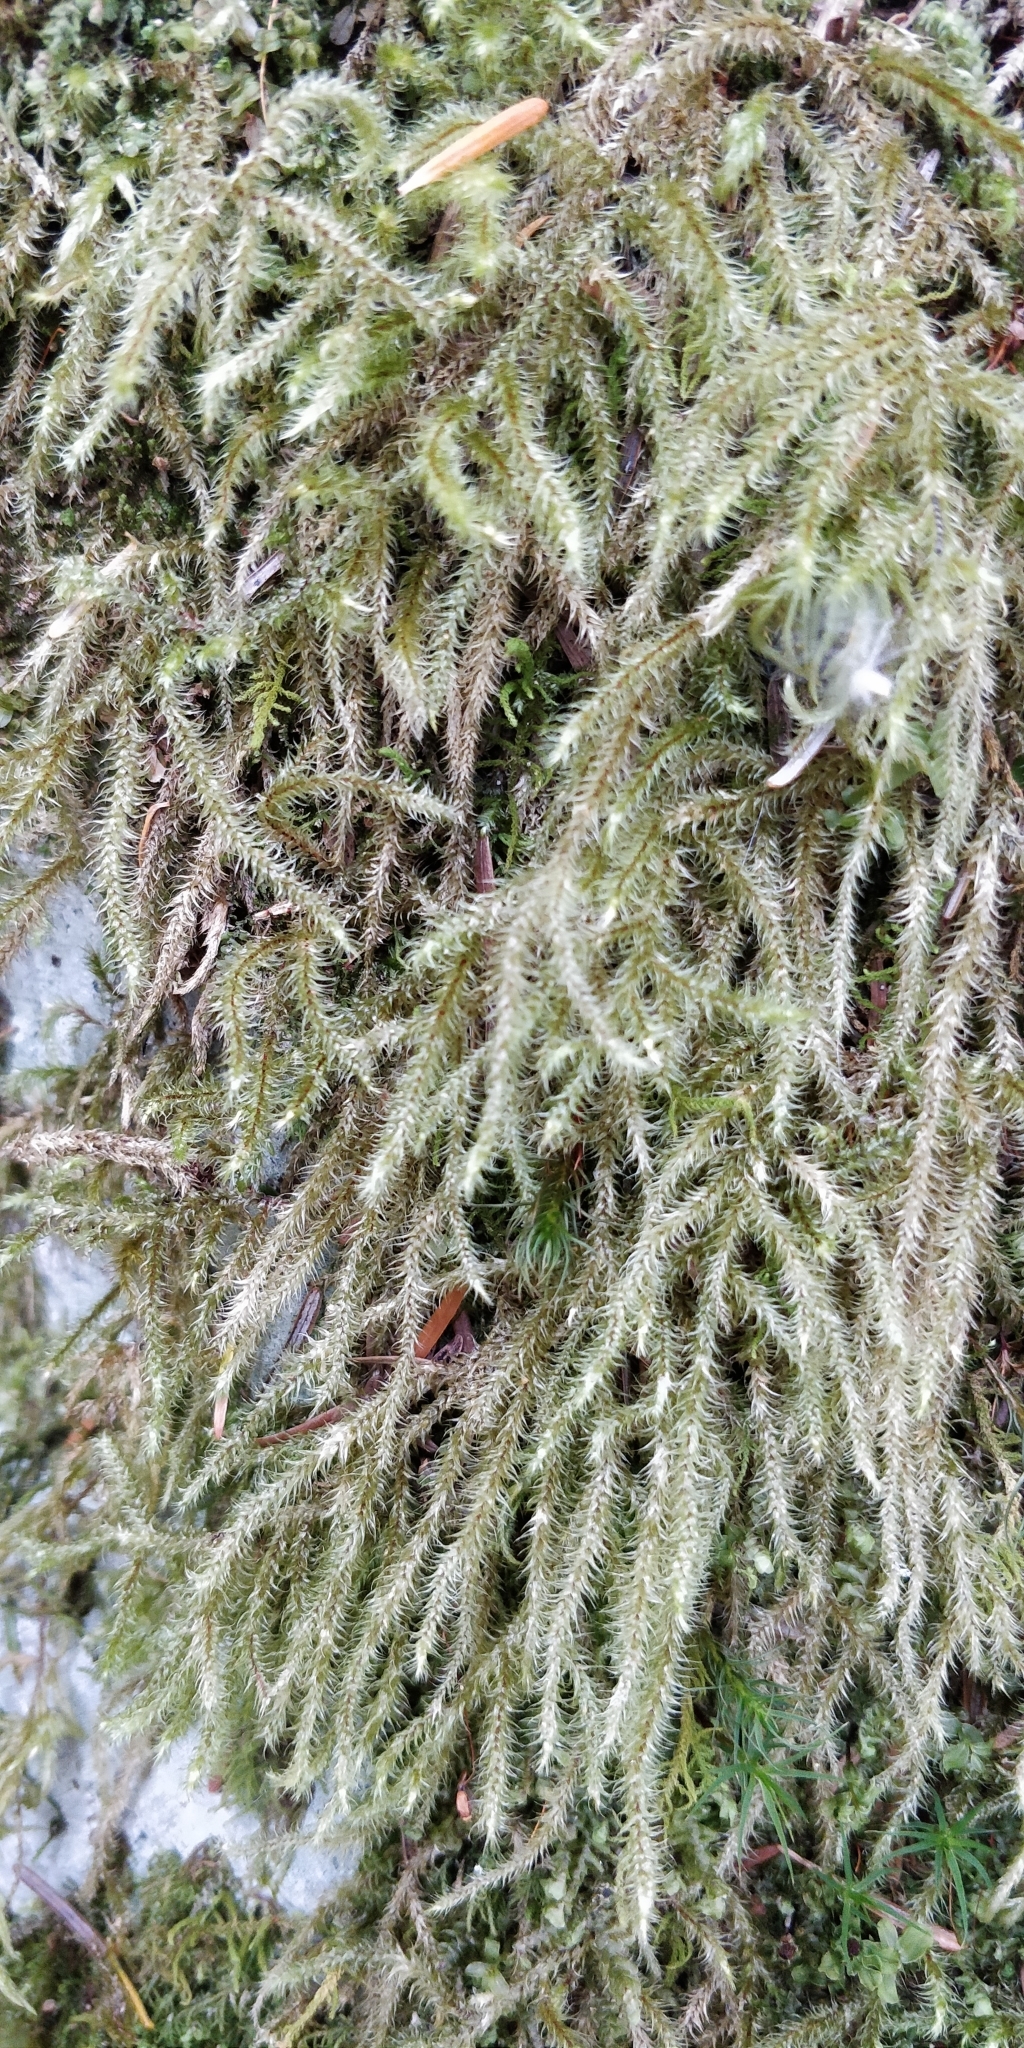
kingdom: Plantae
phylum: Bryophyta
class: Bryopsida
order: Hypnales
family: Hylocomiaceae
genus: Rhytidiadelphus
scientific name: Rhytidiadelphus loreus
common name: Lanky moss
